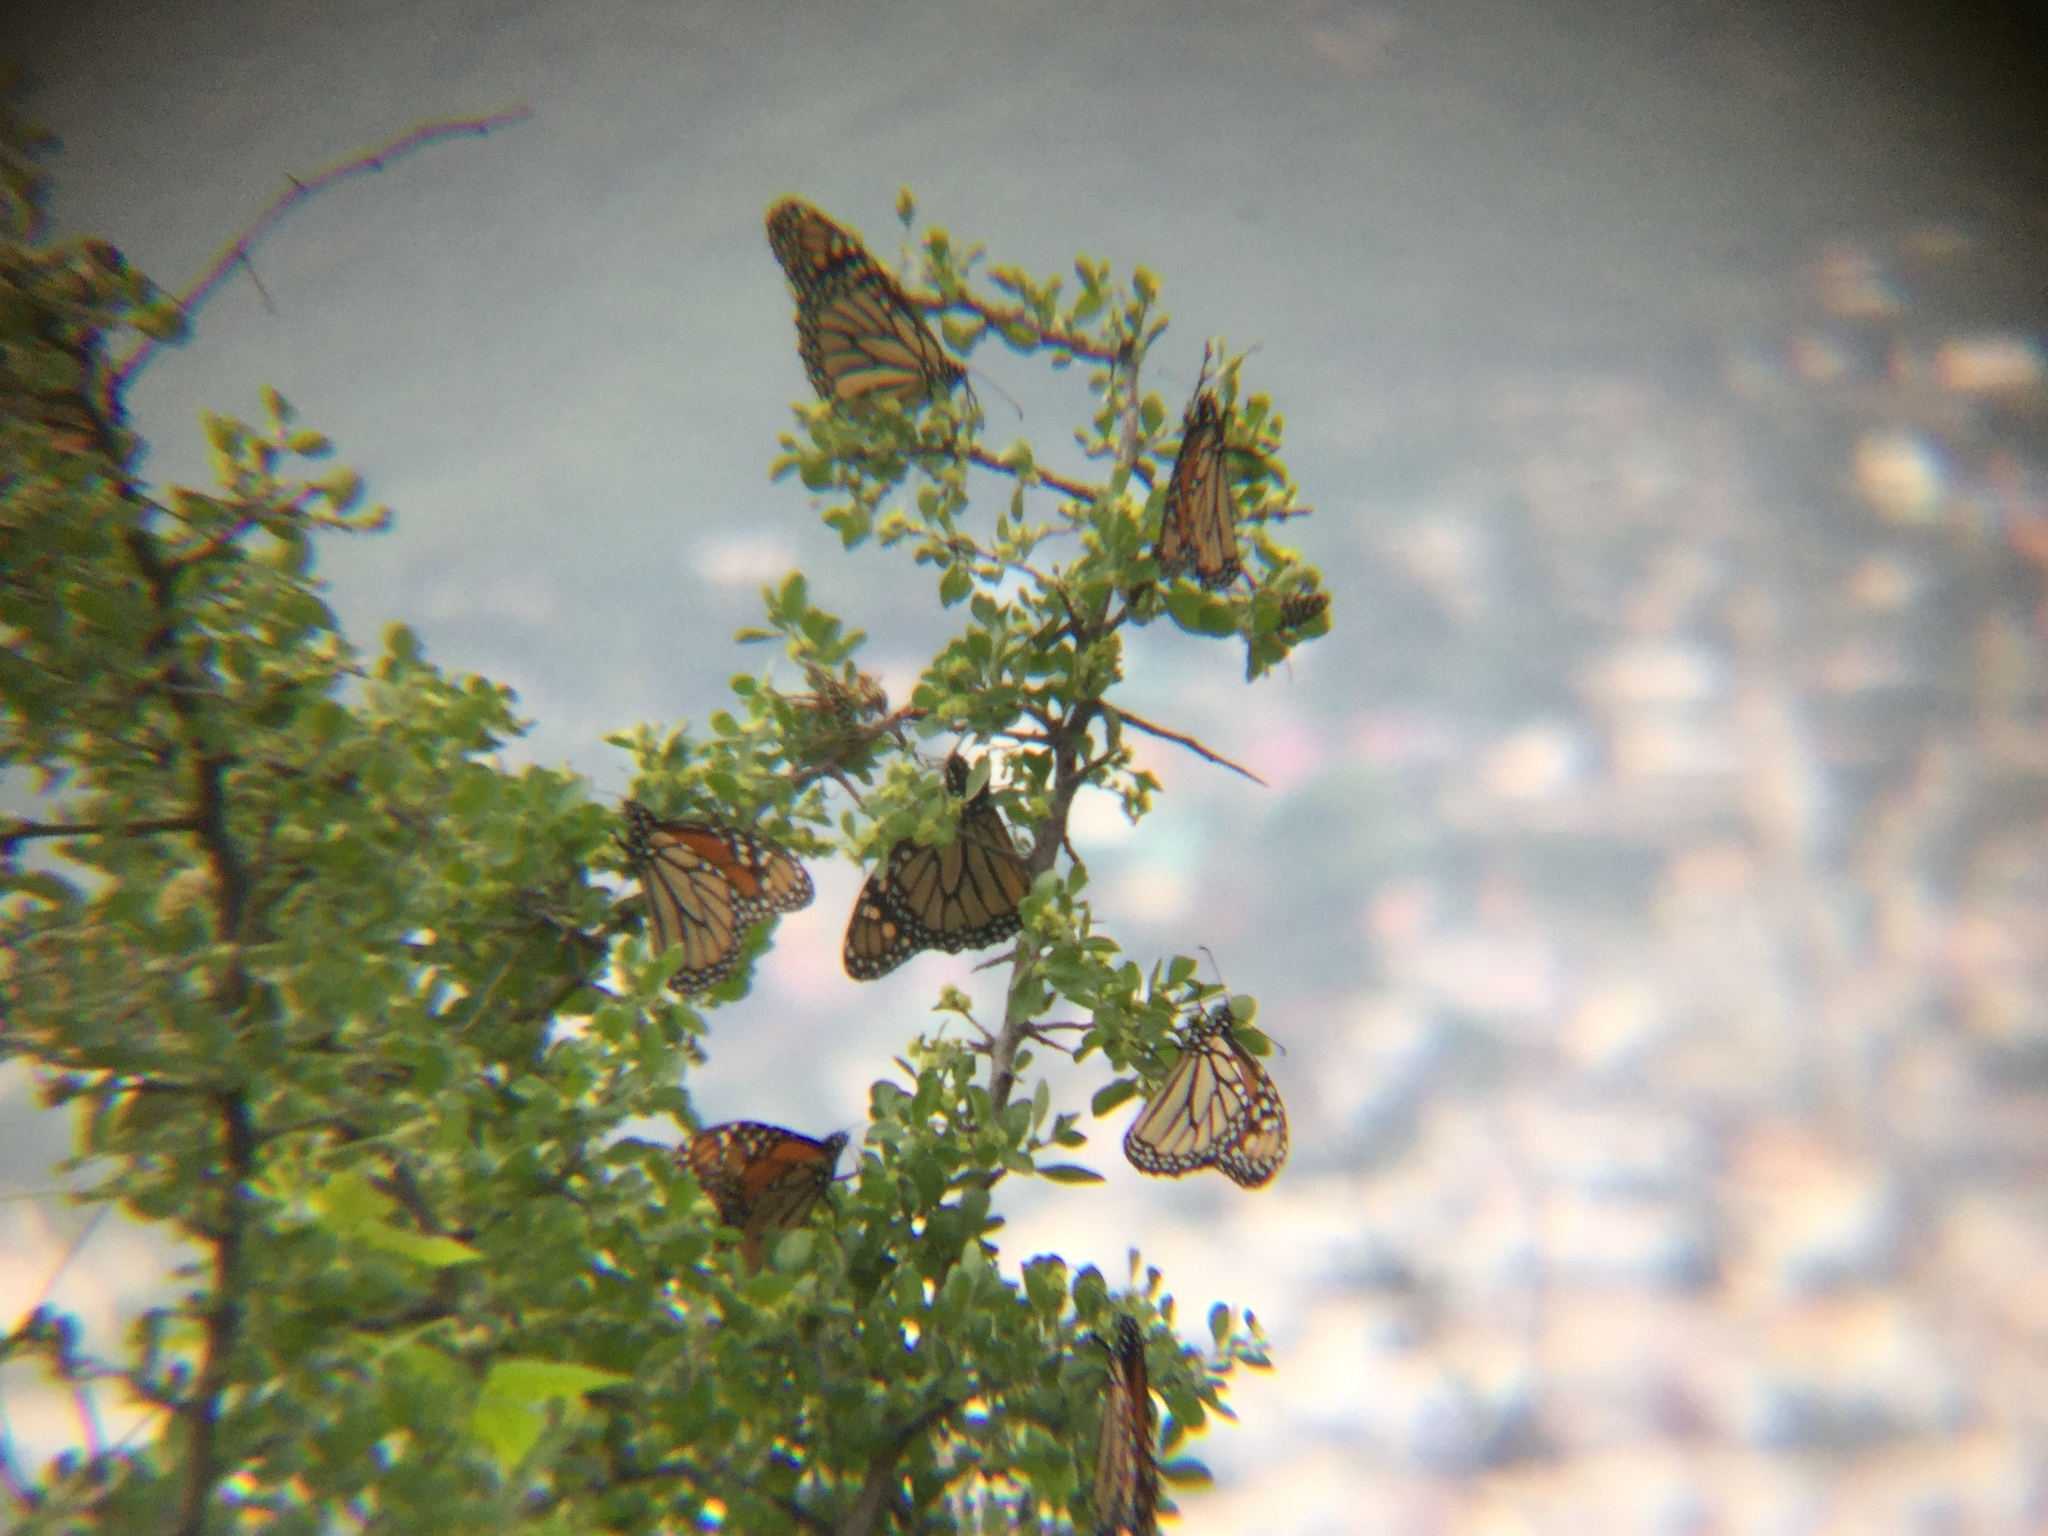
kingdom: Animalia
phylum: Arthropoda
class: Insecta
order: Lepidoptera
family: Nymphalidae
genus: Danaus
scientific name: Danaus plexippus
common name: Monarch
